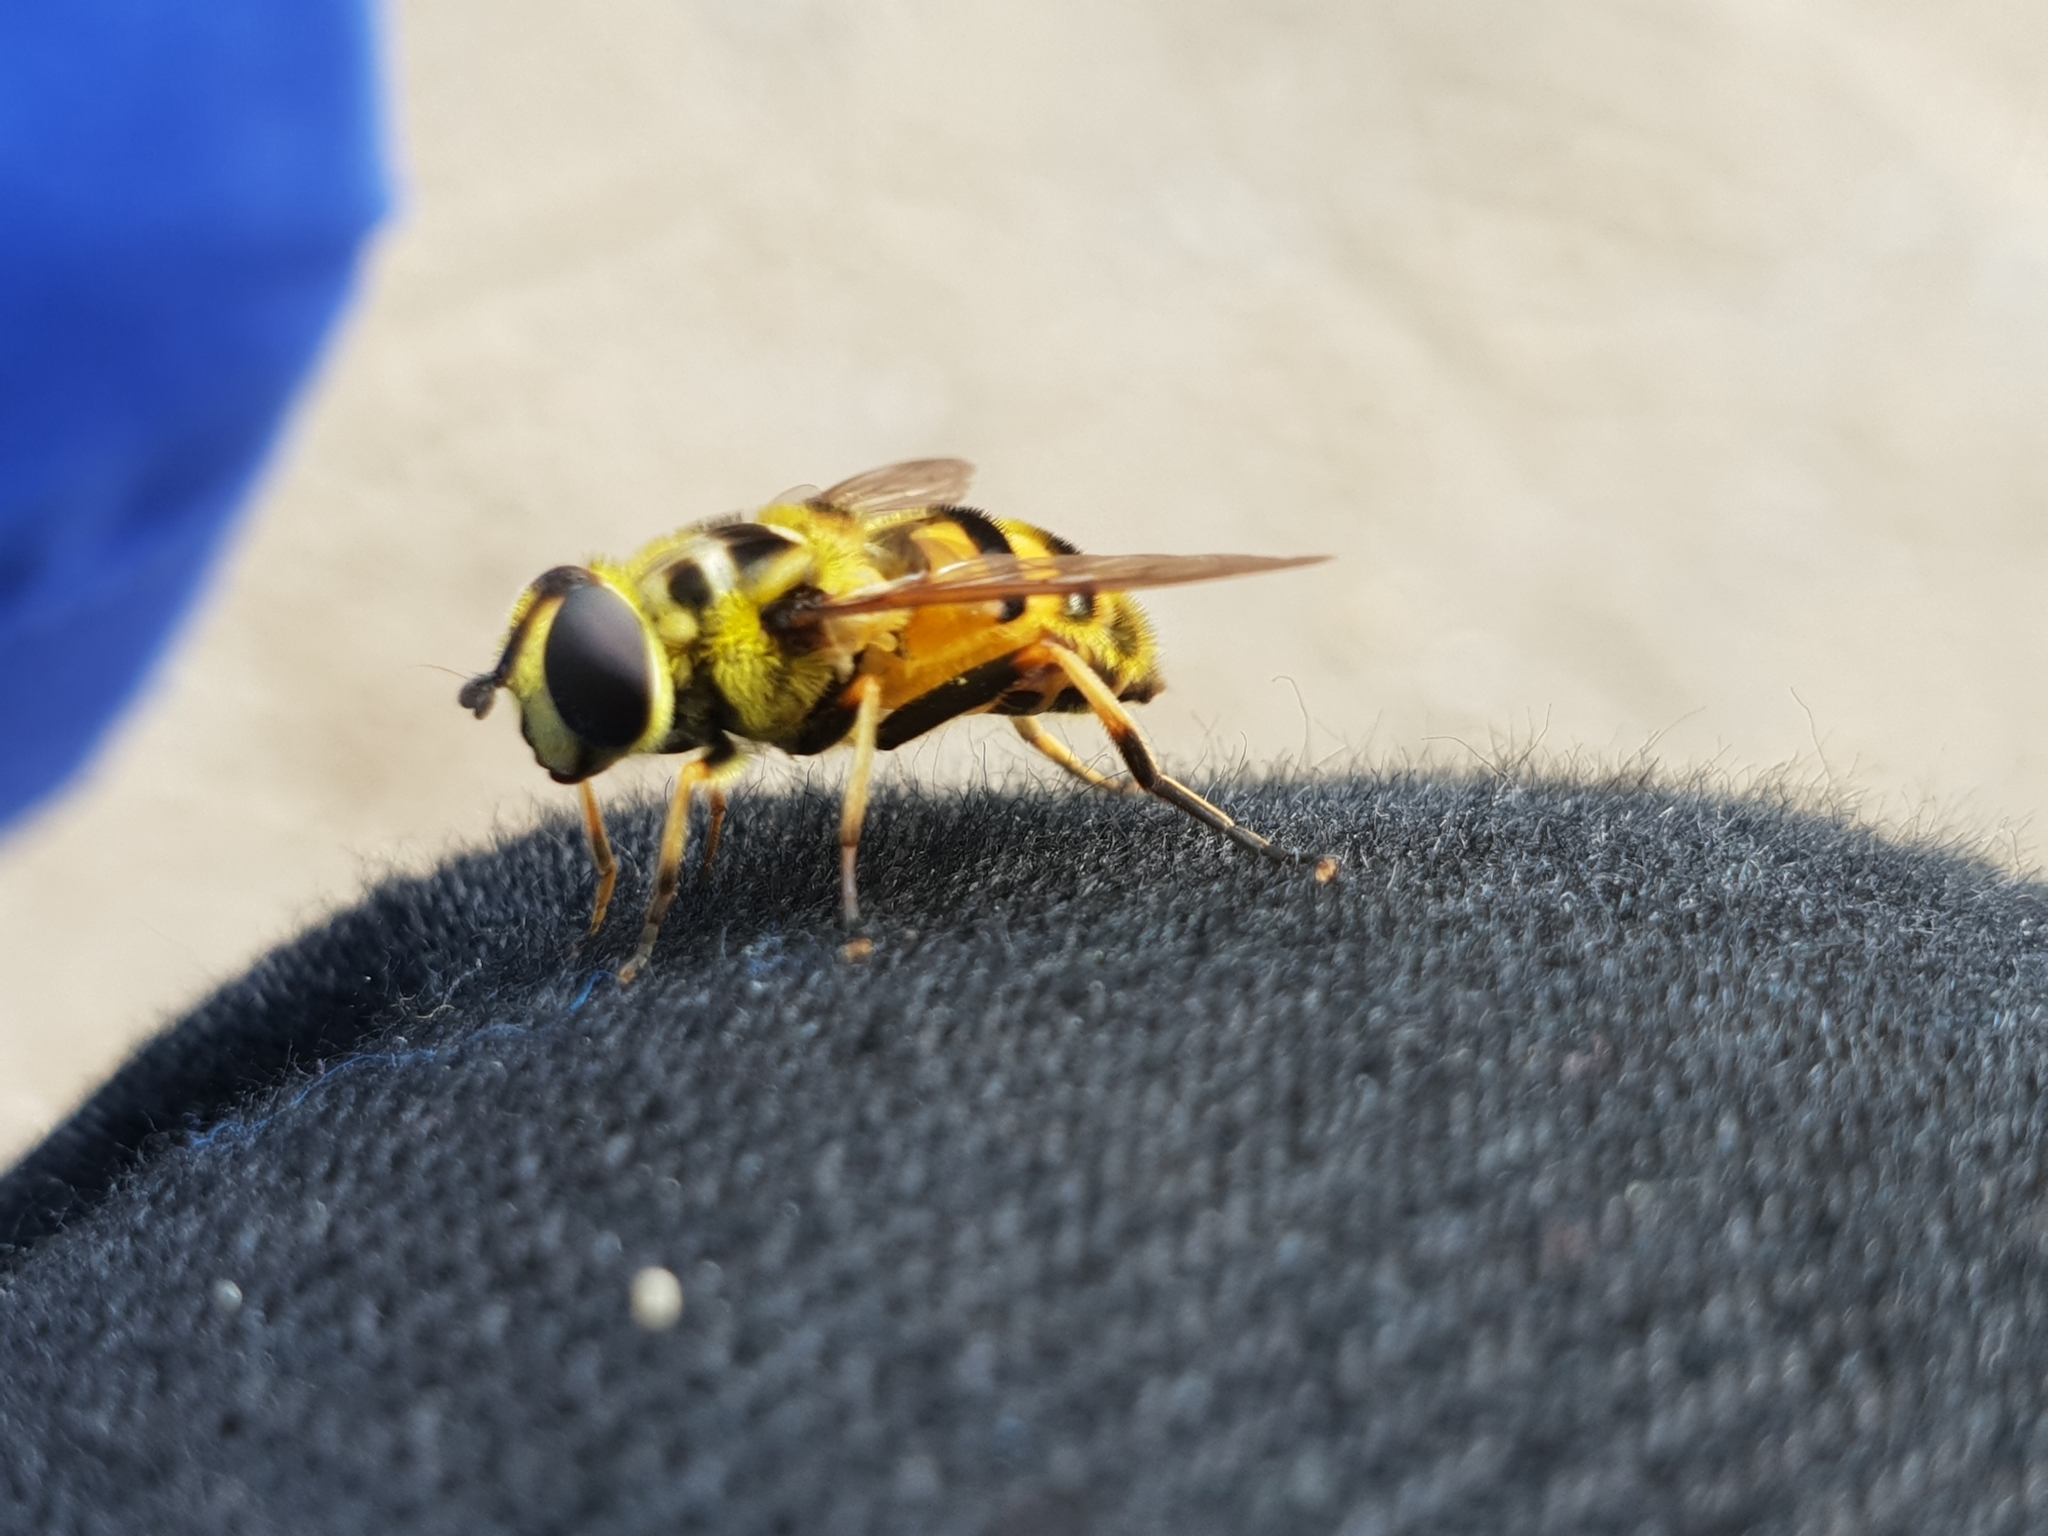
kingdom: Animalia
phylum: Arthropoda
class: Insecta
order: Diptera
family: Syrphidae
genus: Myathropa
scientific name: Myathropa florea
